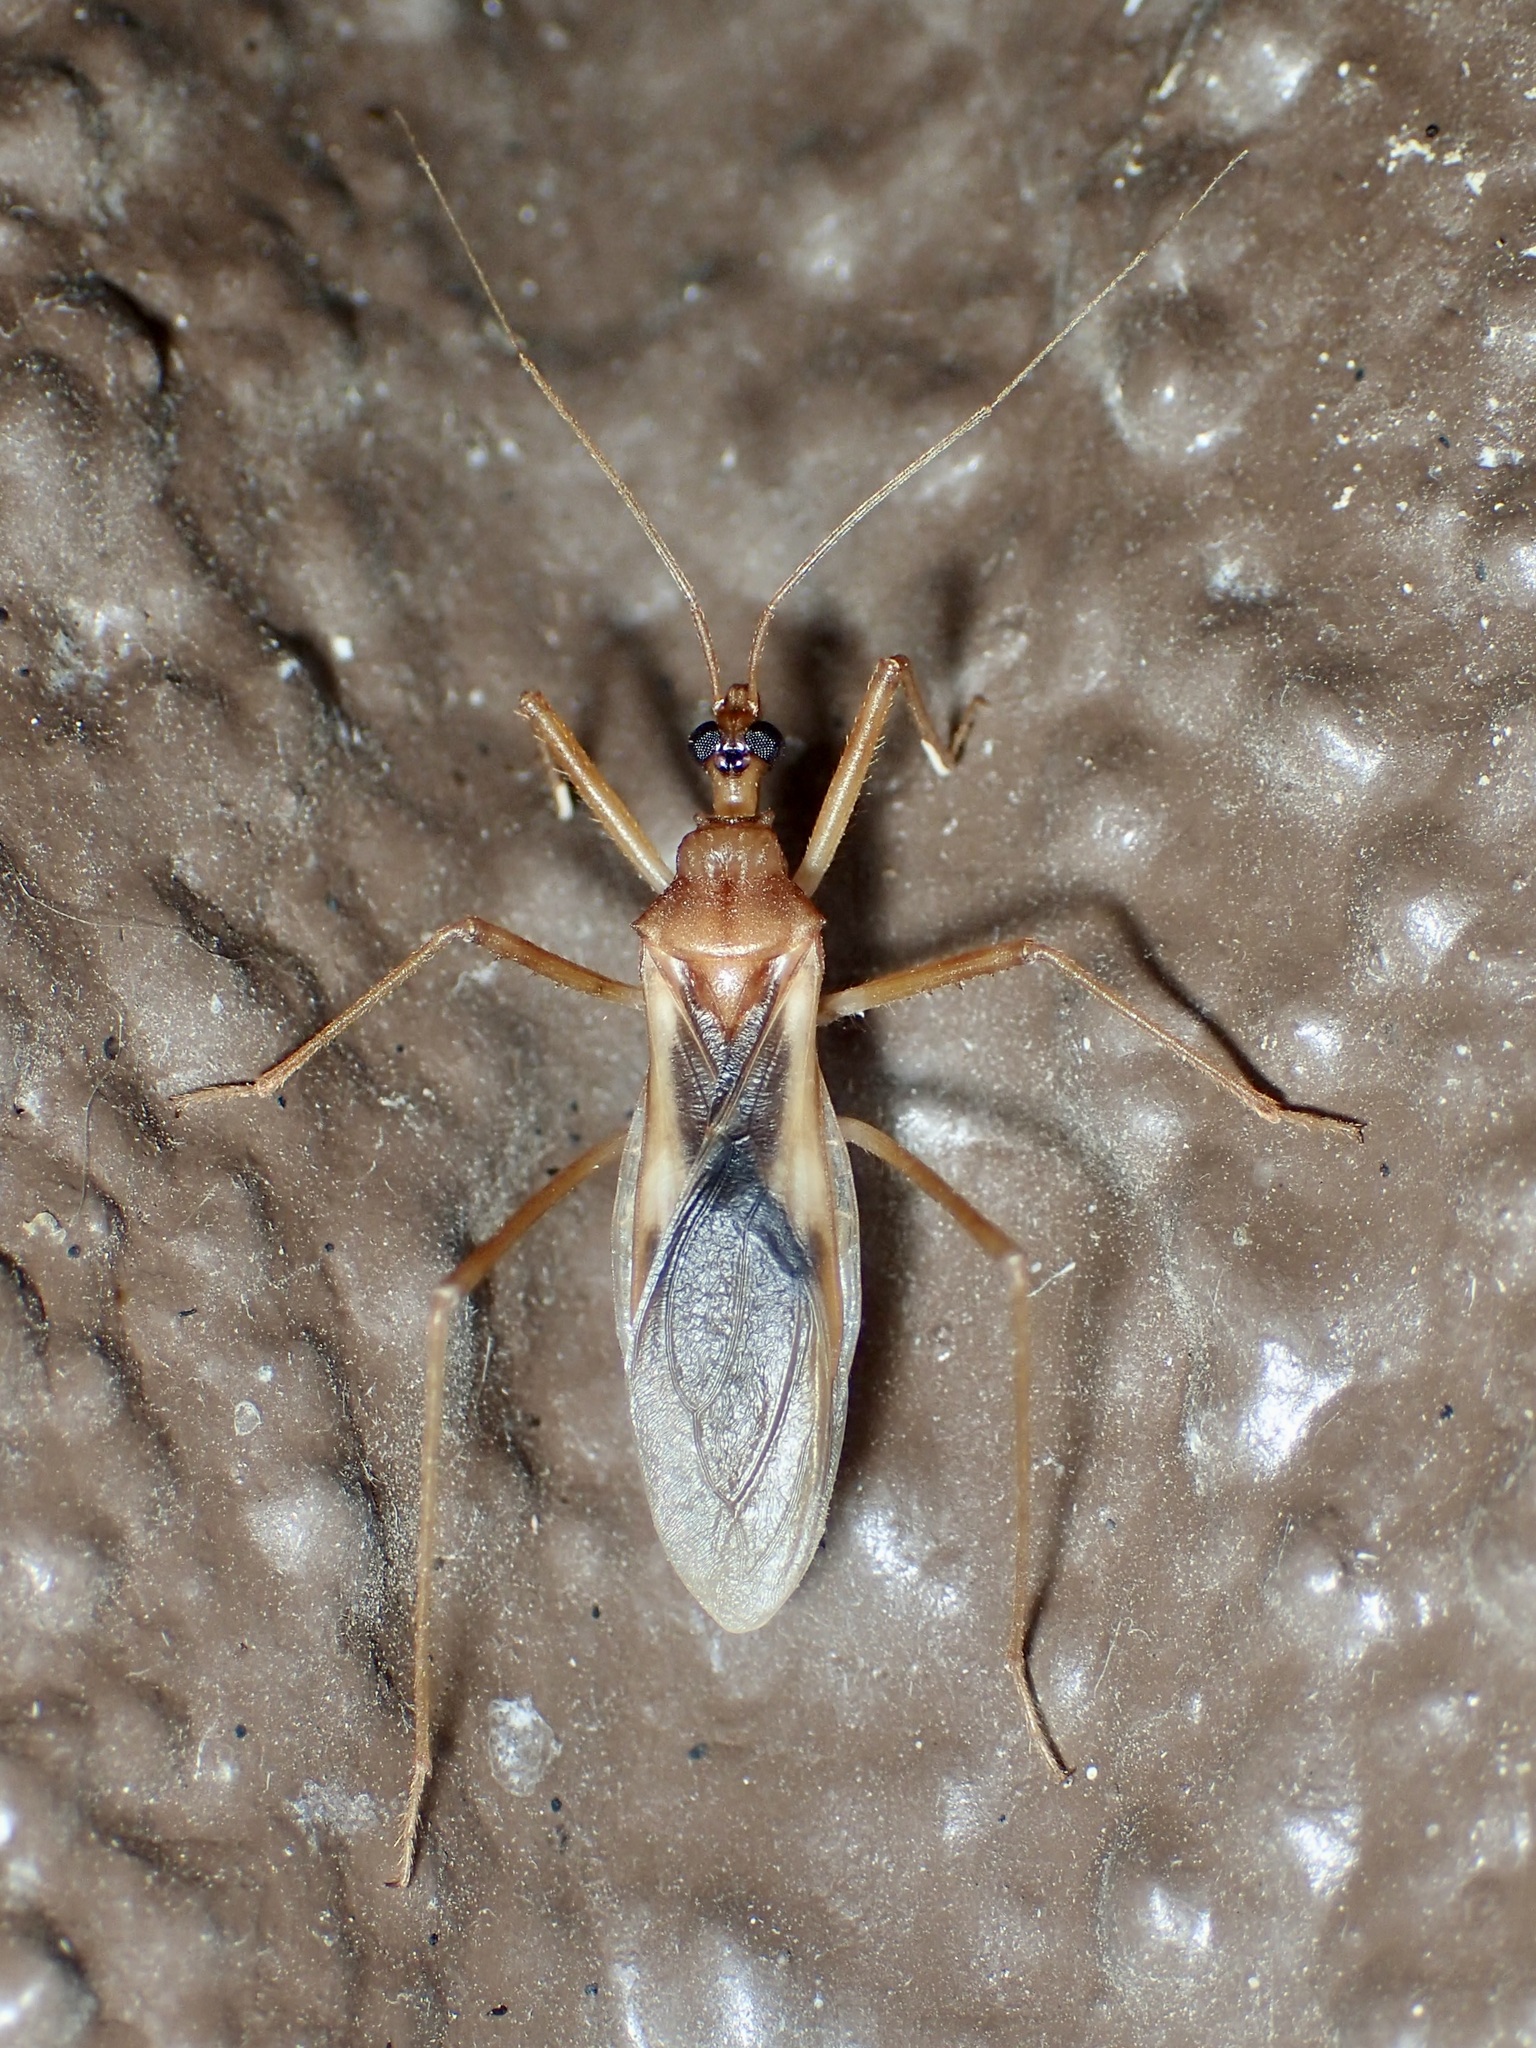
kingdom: Animalia
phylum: Arthropoda
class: Insecta
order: Hemiptera
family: Reduviidae
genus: Zeluroides
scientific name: Zeluroides americanus
